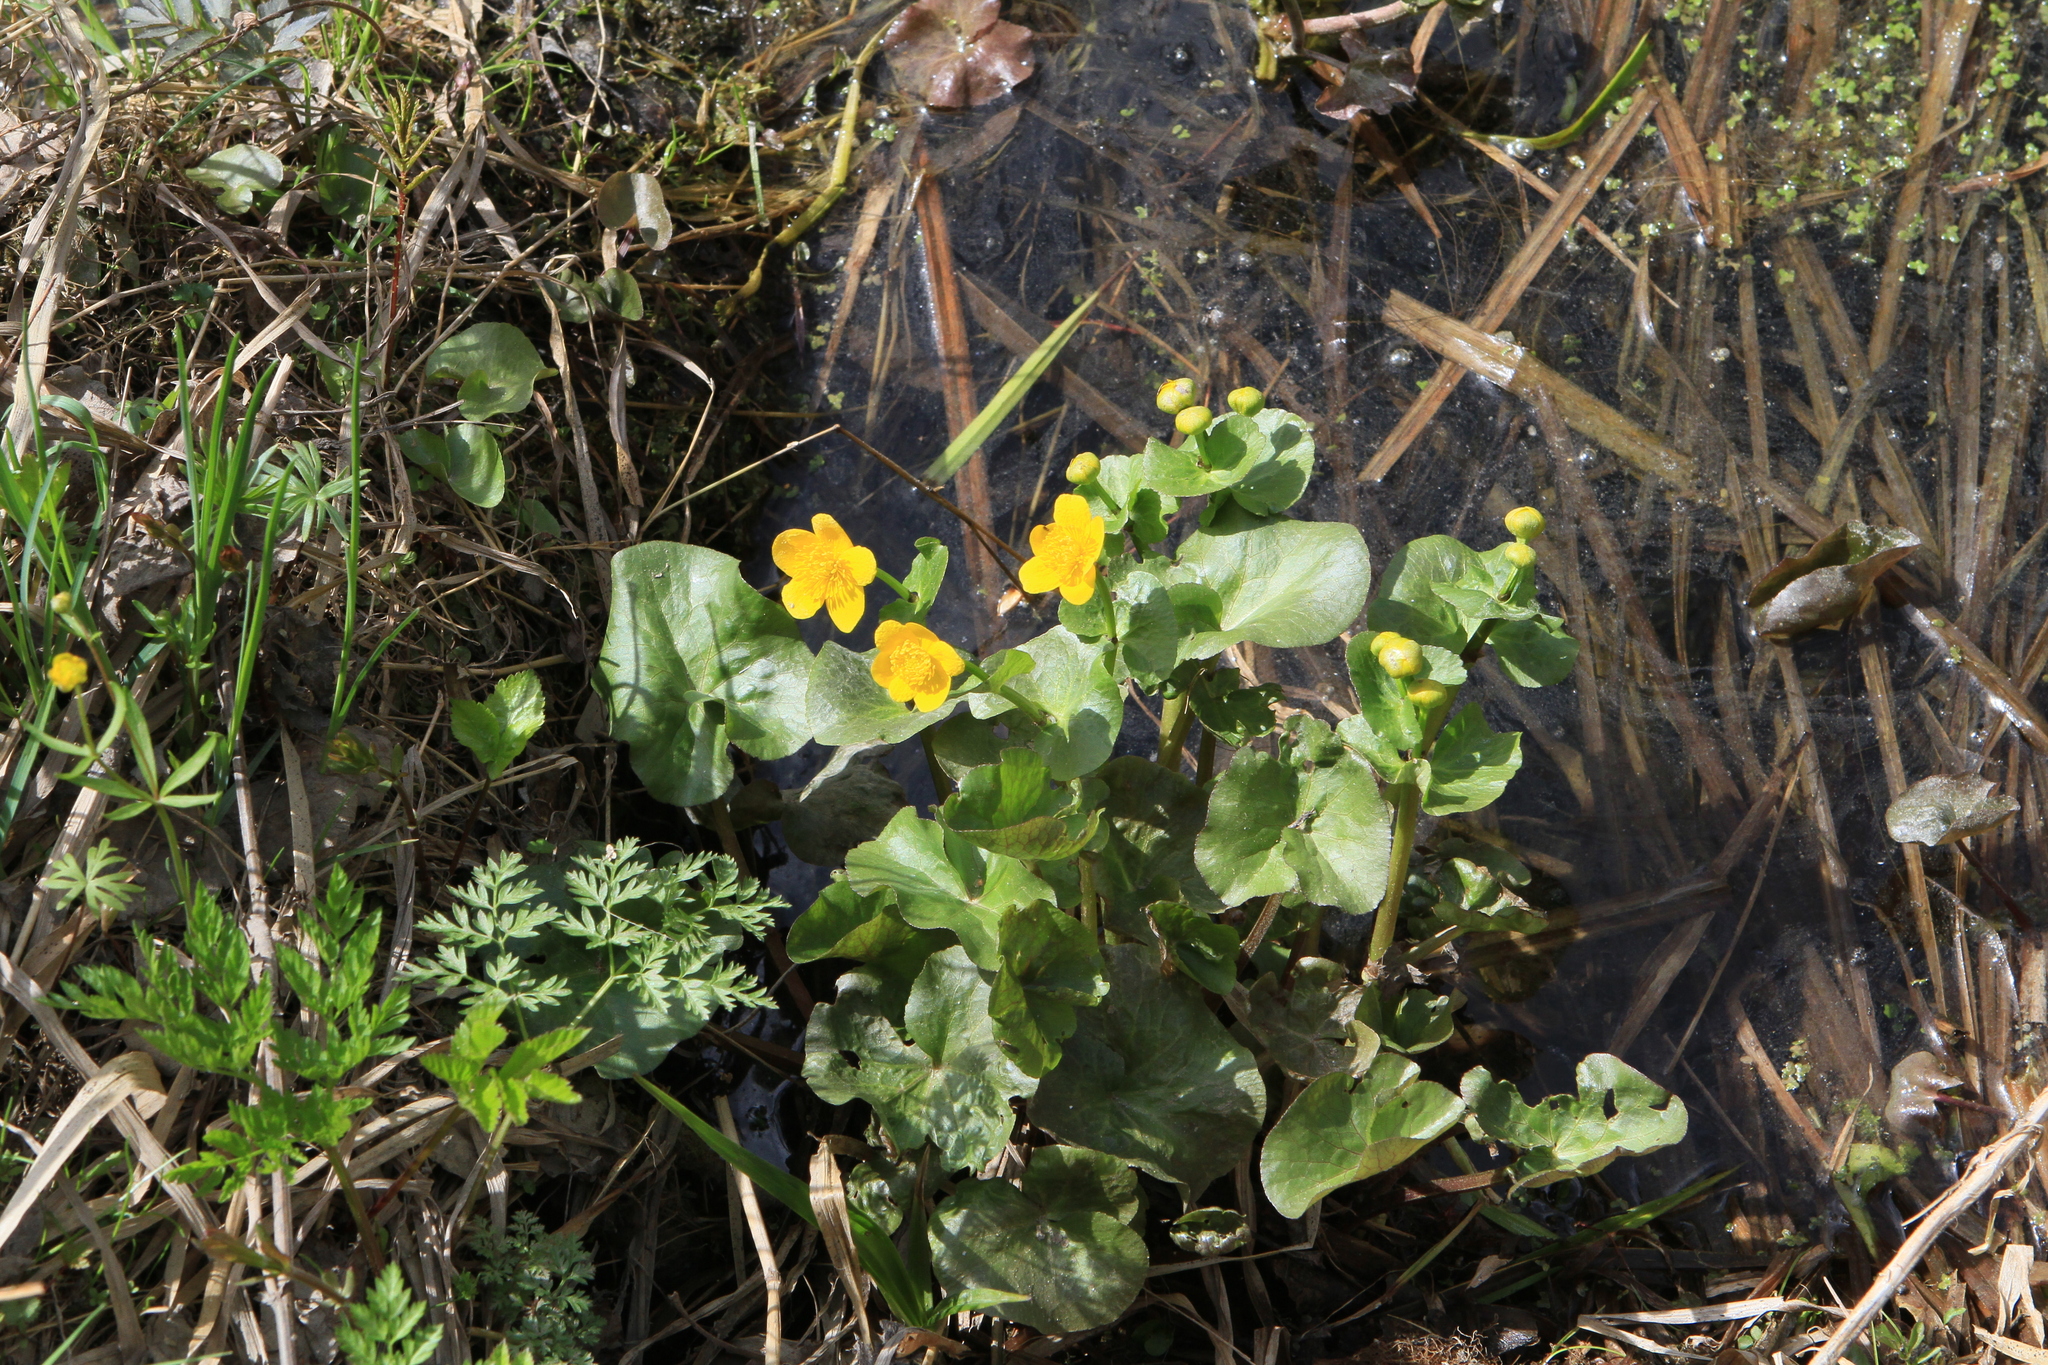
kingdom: Plantae
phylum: Tracheophyta
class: Magnoliopsida
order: Ranunculales
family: Ranunculaceae
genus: Caltha
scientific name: Caltha palustris
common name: Marsh marigold
